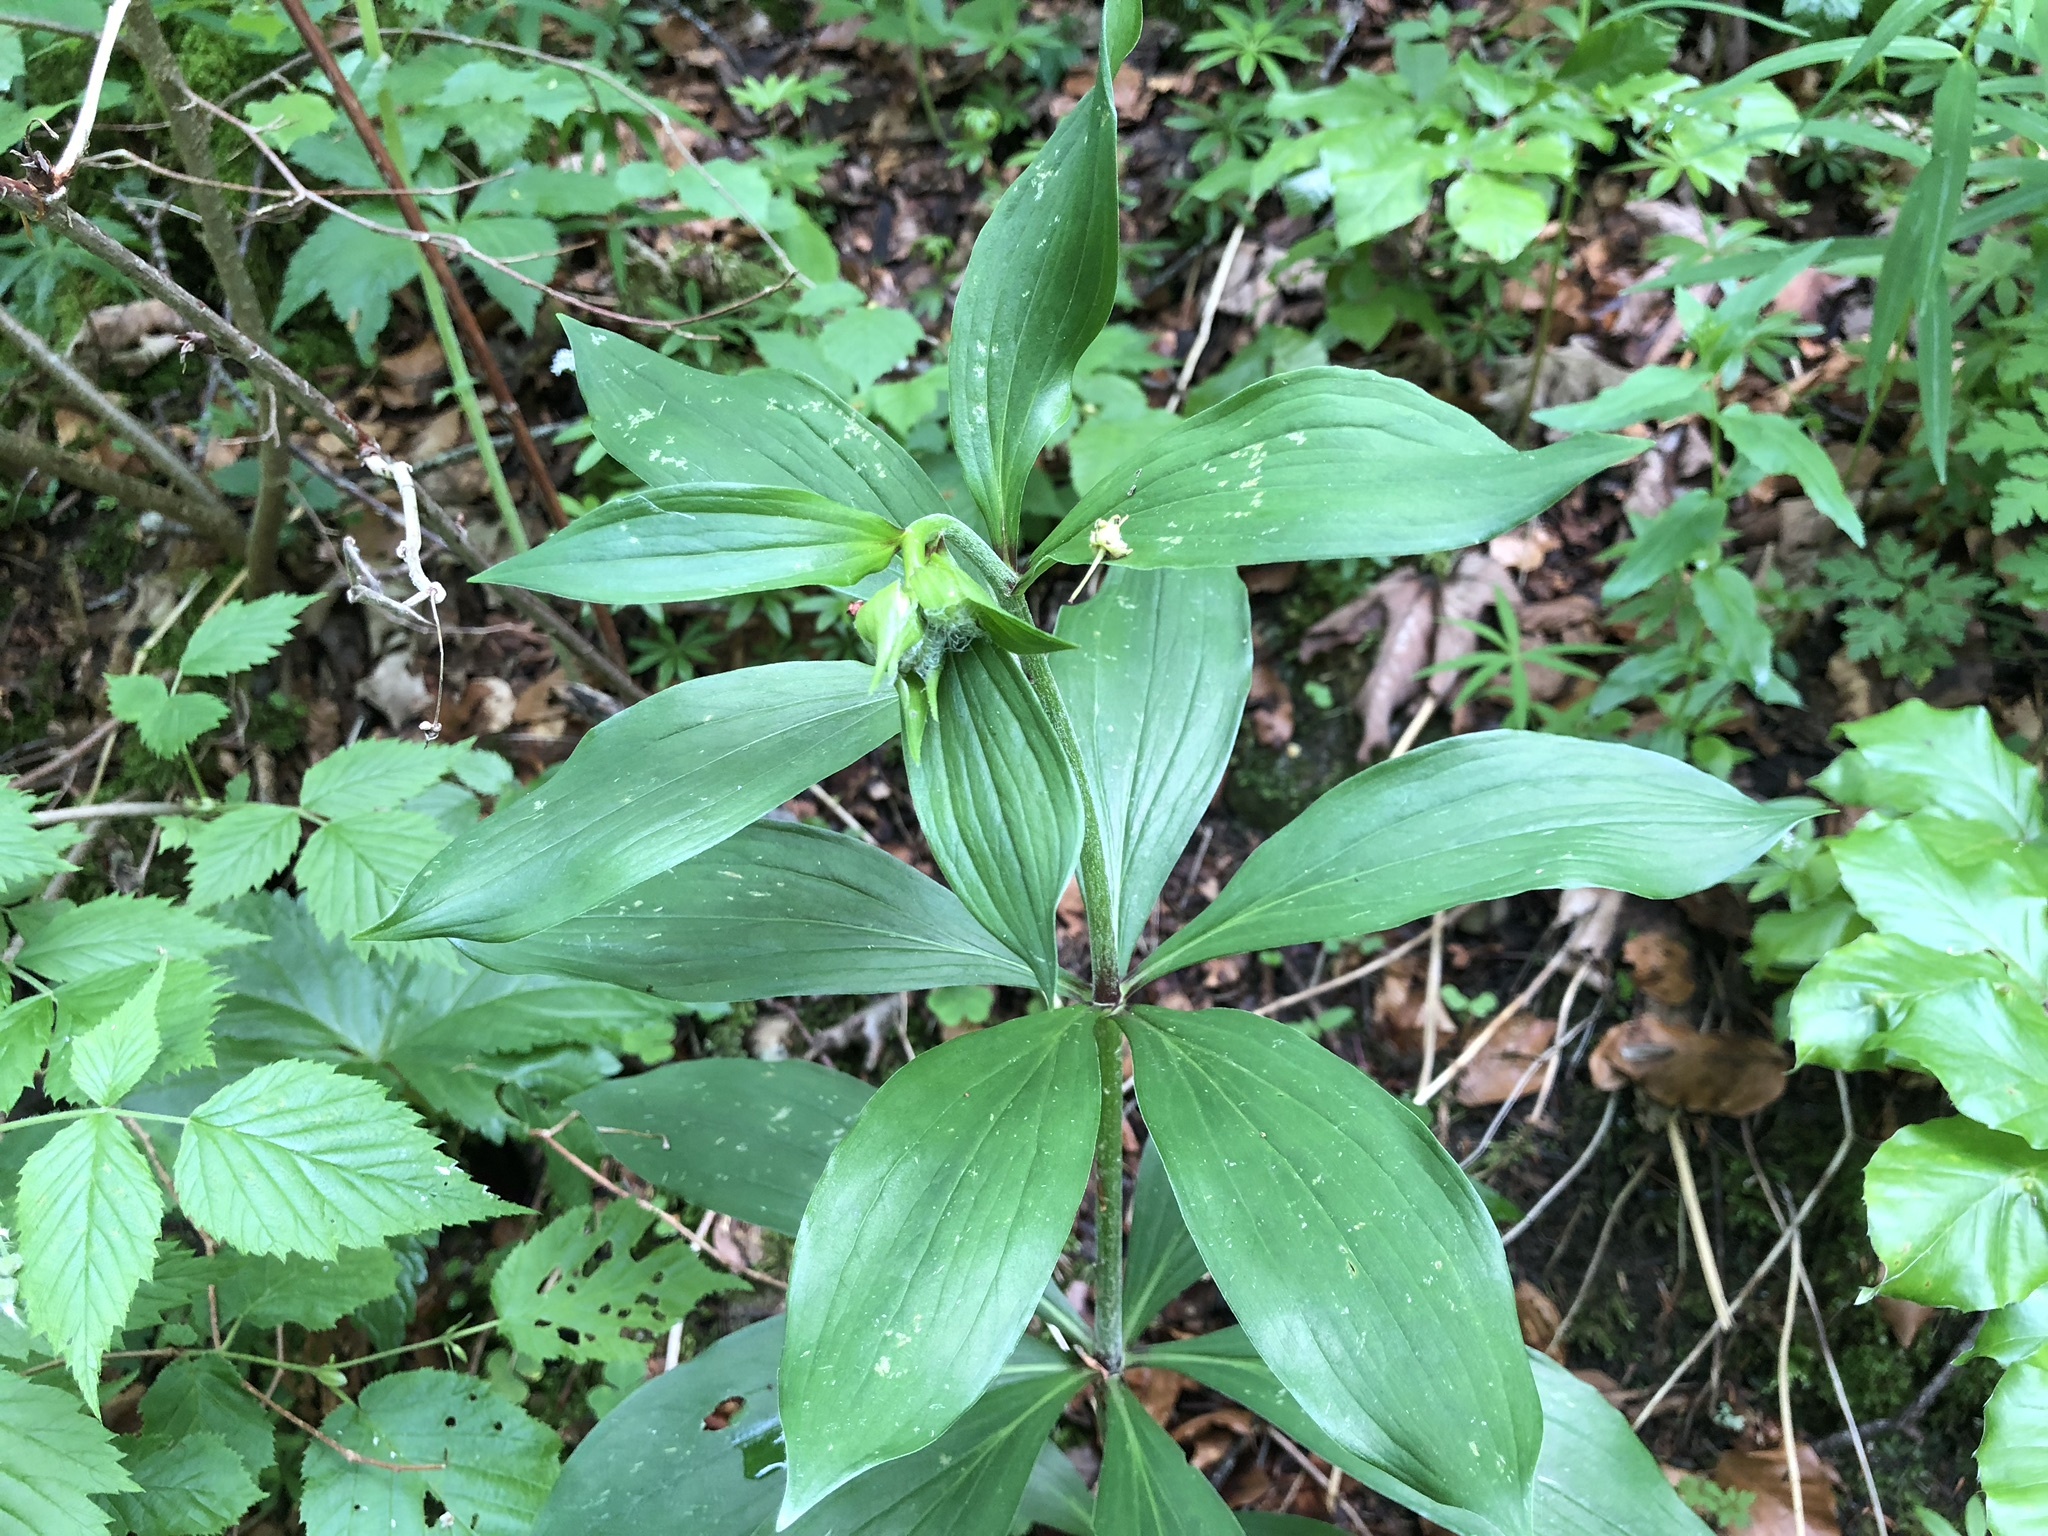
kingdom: Plantae
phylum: Tracheophyta
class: Liliopsida
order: Liliales
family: Liliaceae
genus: Lilium
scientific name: Lilium martagon
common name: Martagon lily
